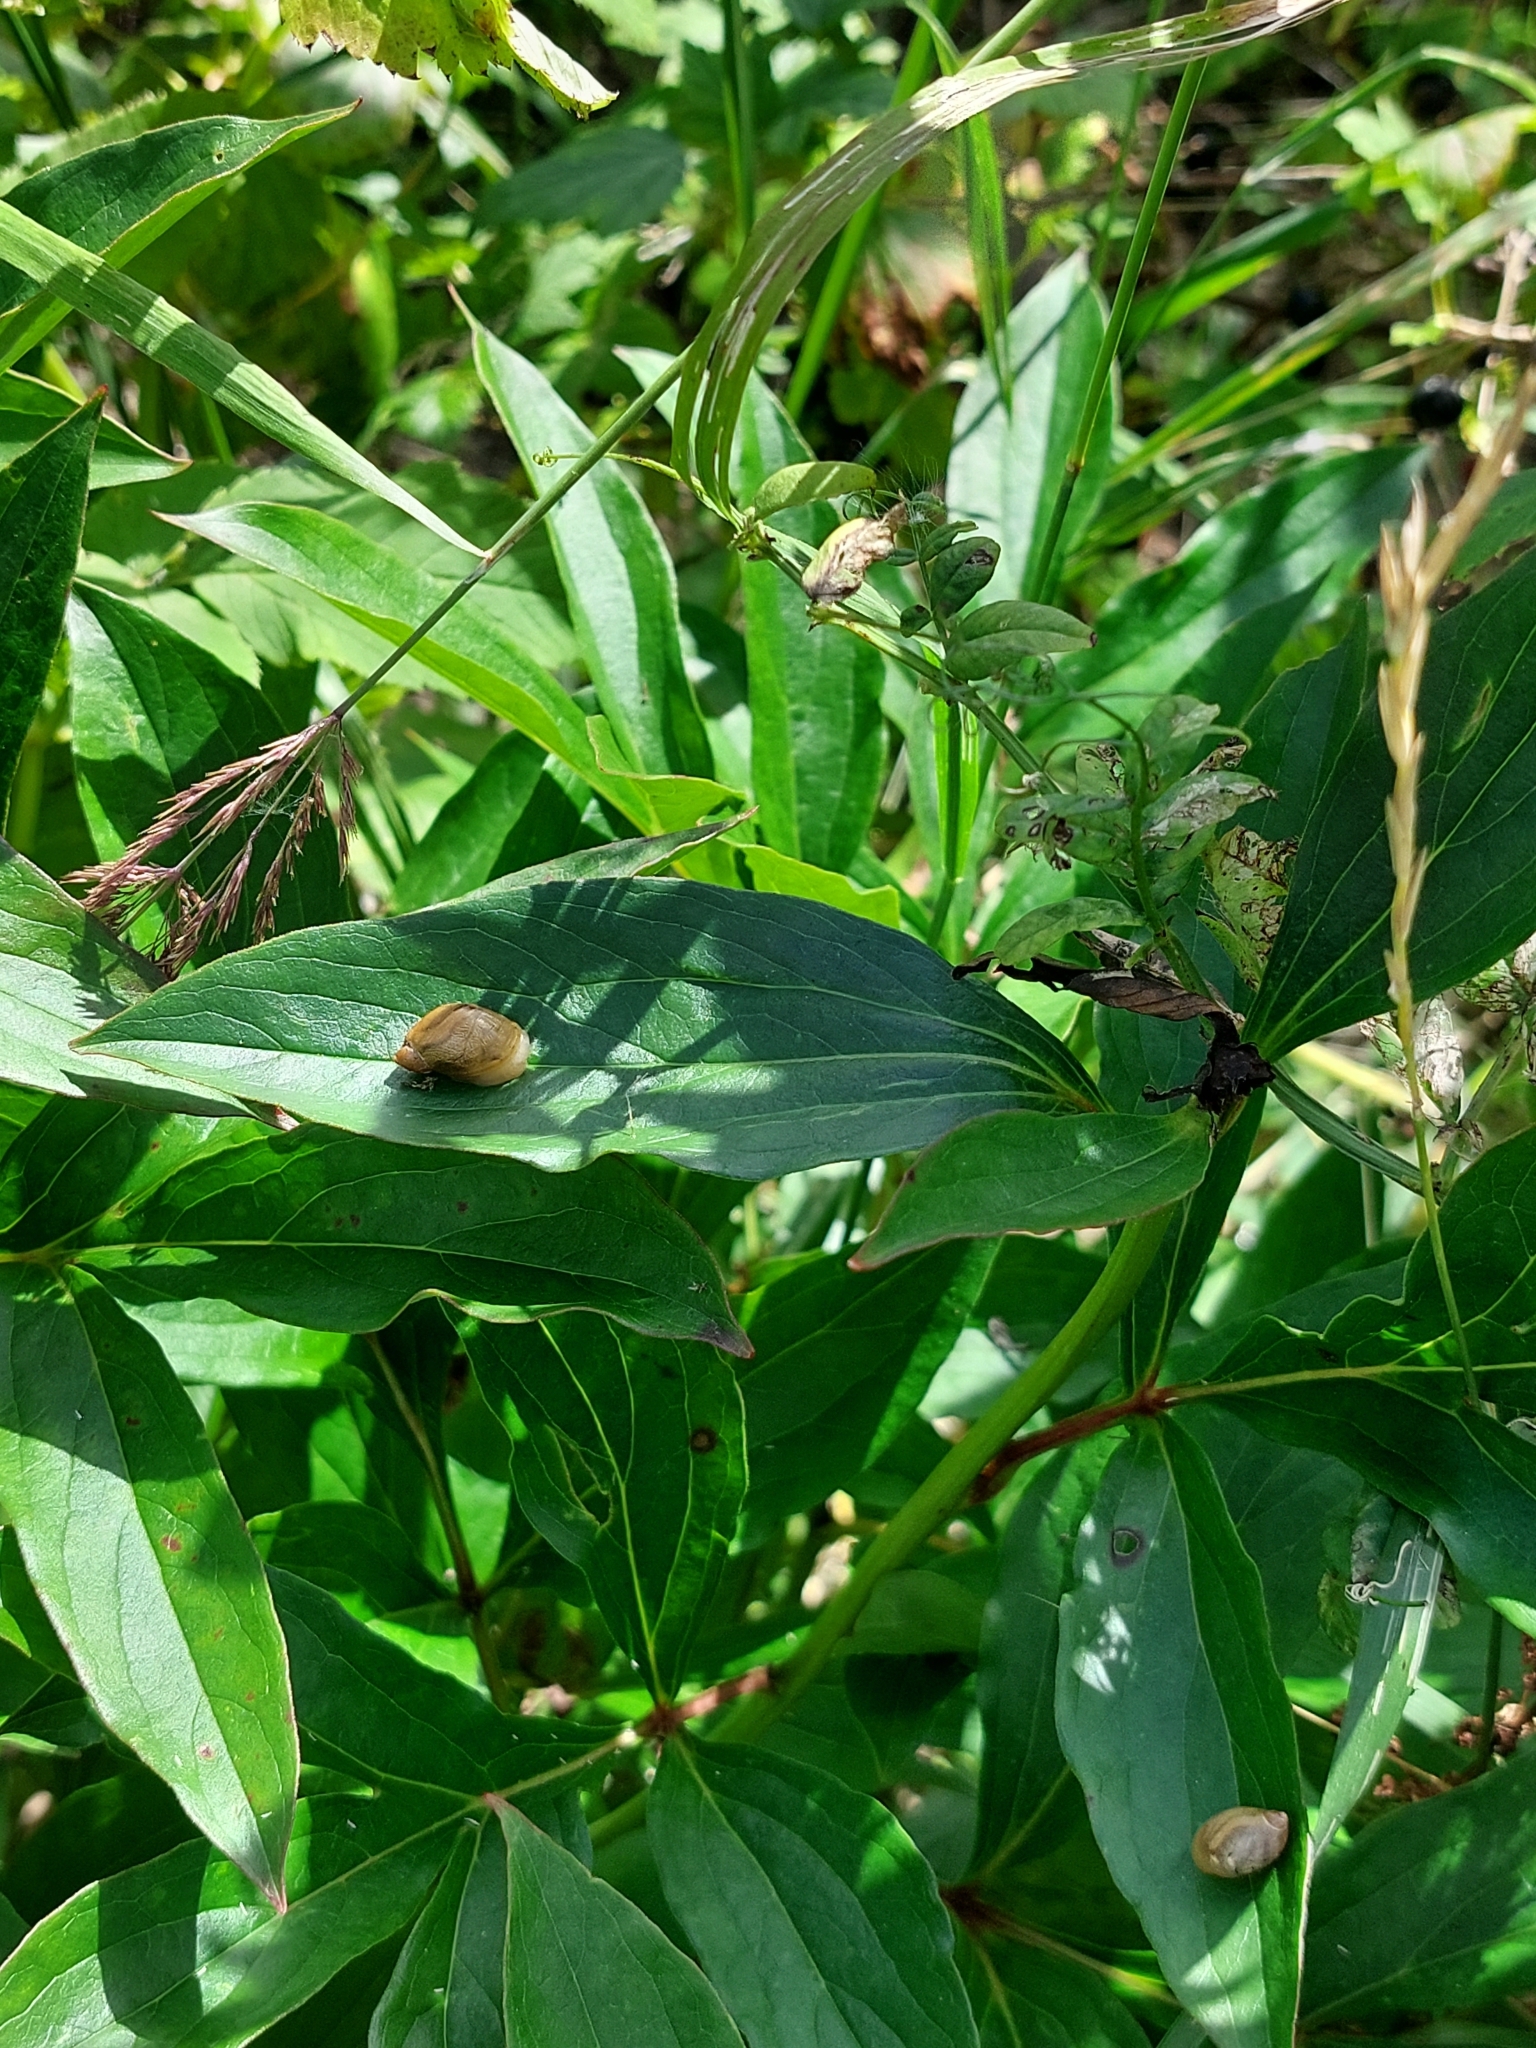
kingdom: Animalia
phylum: Mollusca
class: Gastropoda
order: Stylommatophora
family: Succineidae
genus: Succinea
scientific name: Succinea putris
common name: European ambersnail
